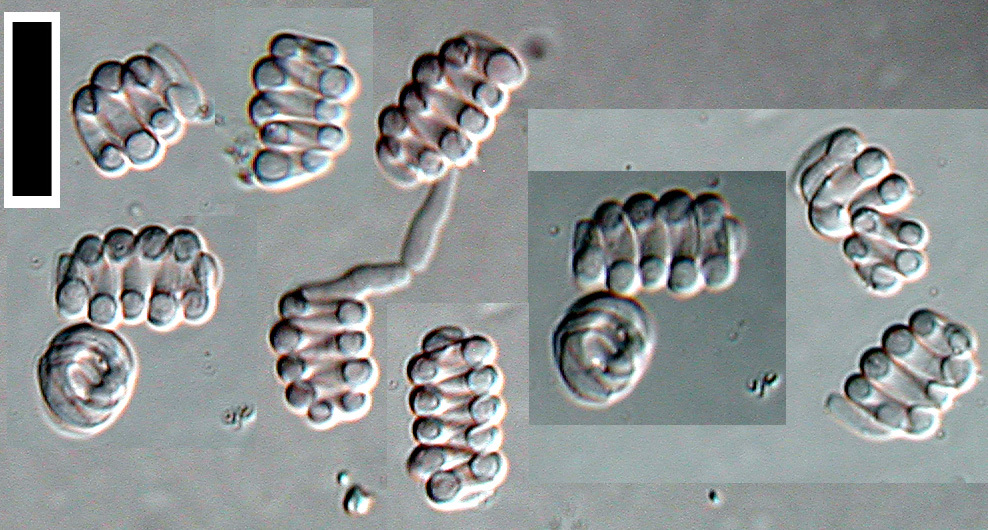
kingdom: Fungi
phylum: Ascomycota
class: Leotiomycetes
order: Helotiales
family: Helotiaceae
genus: Helicodendron
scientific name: Helicodendron hyalinum
